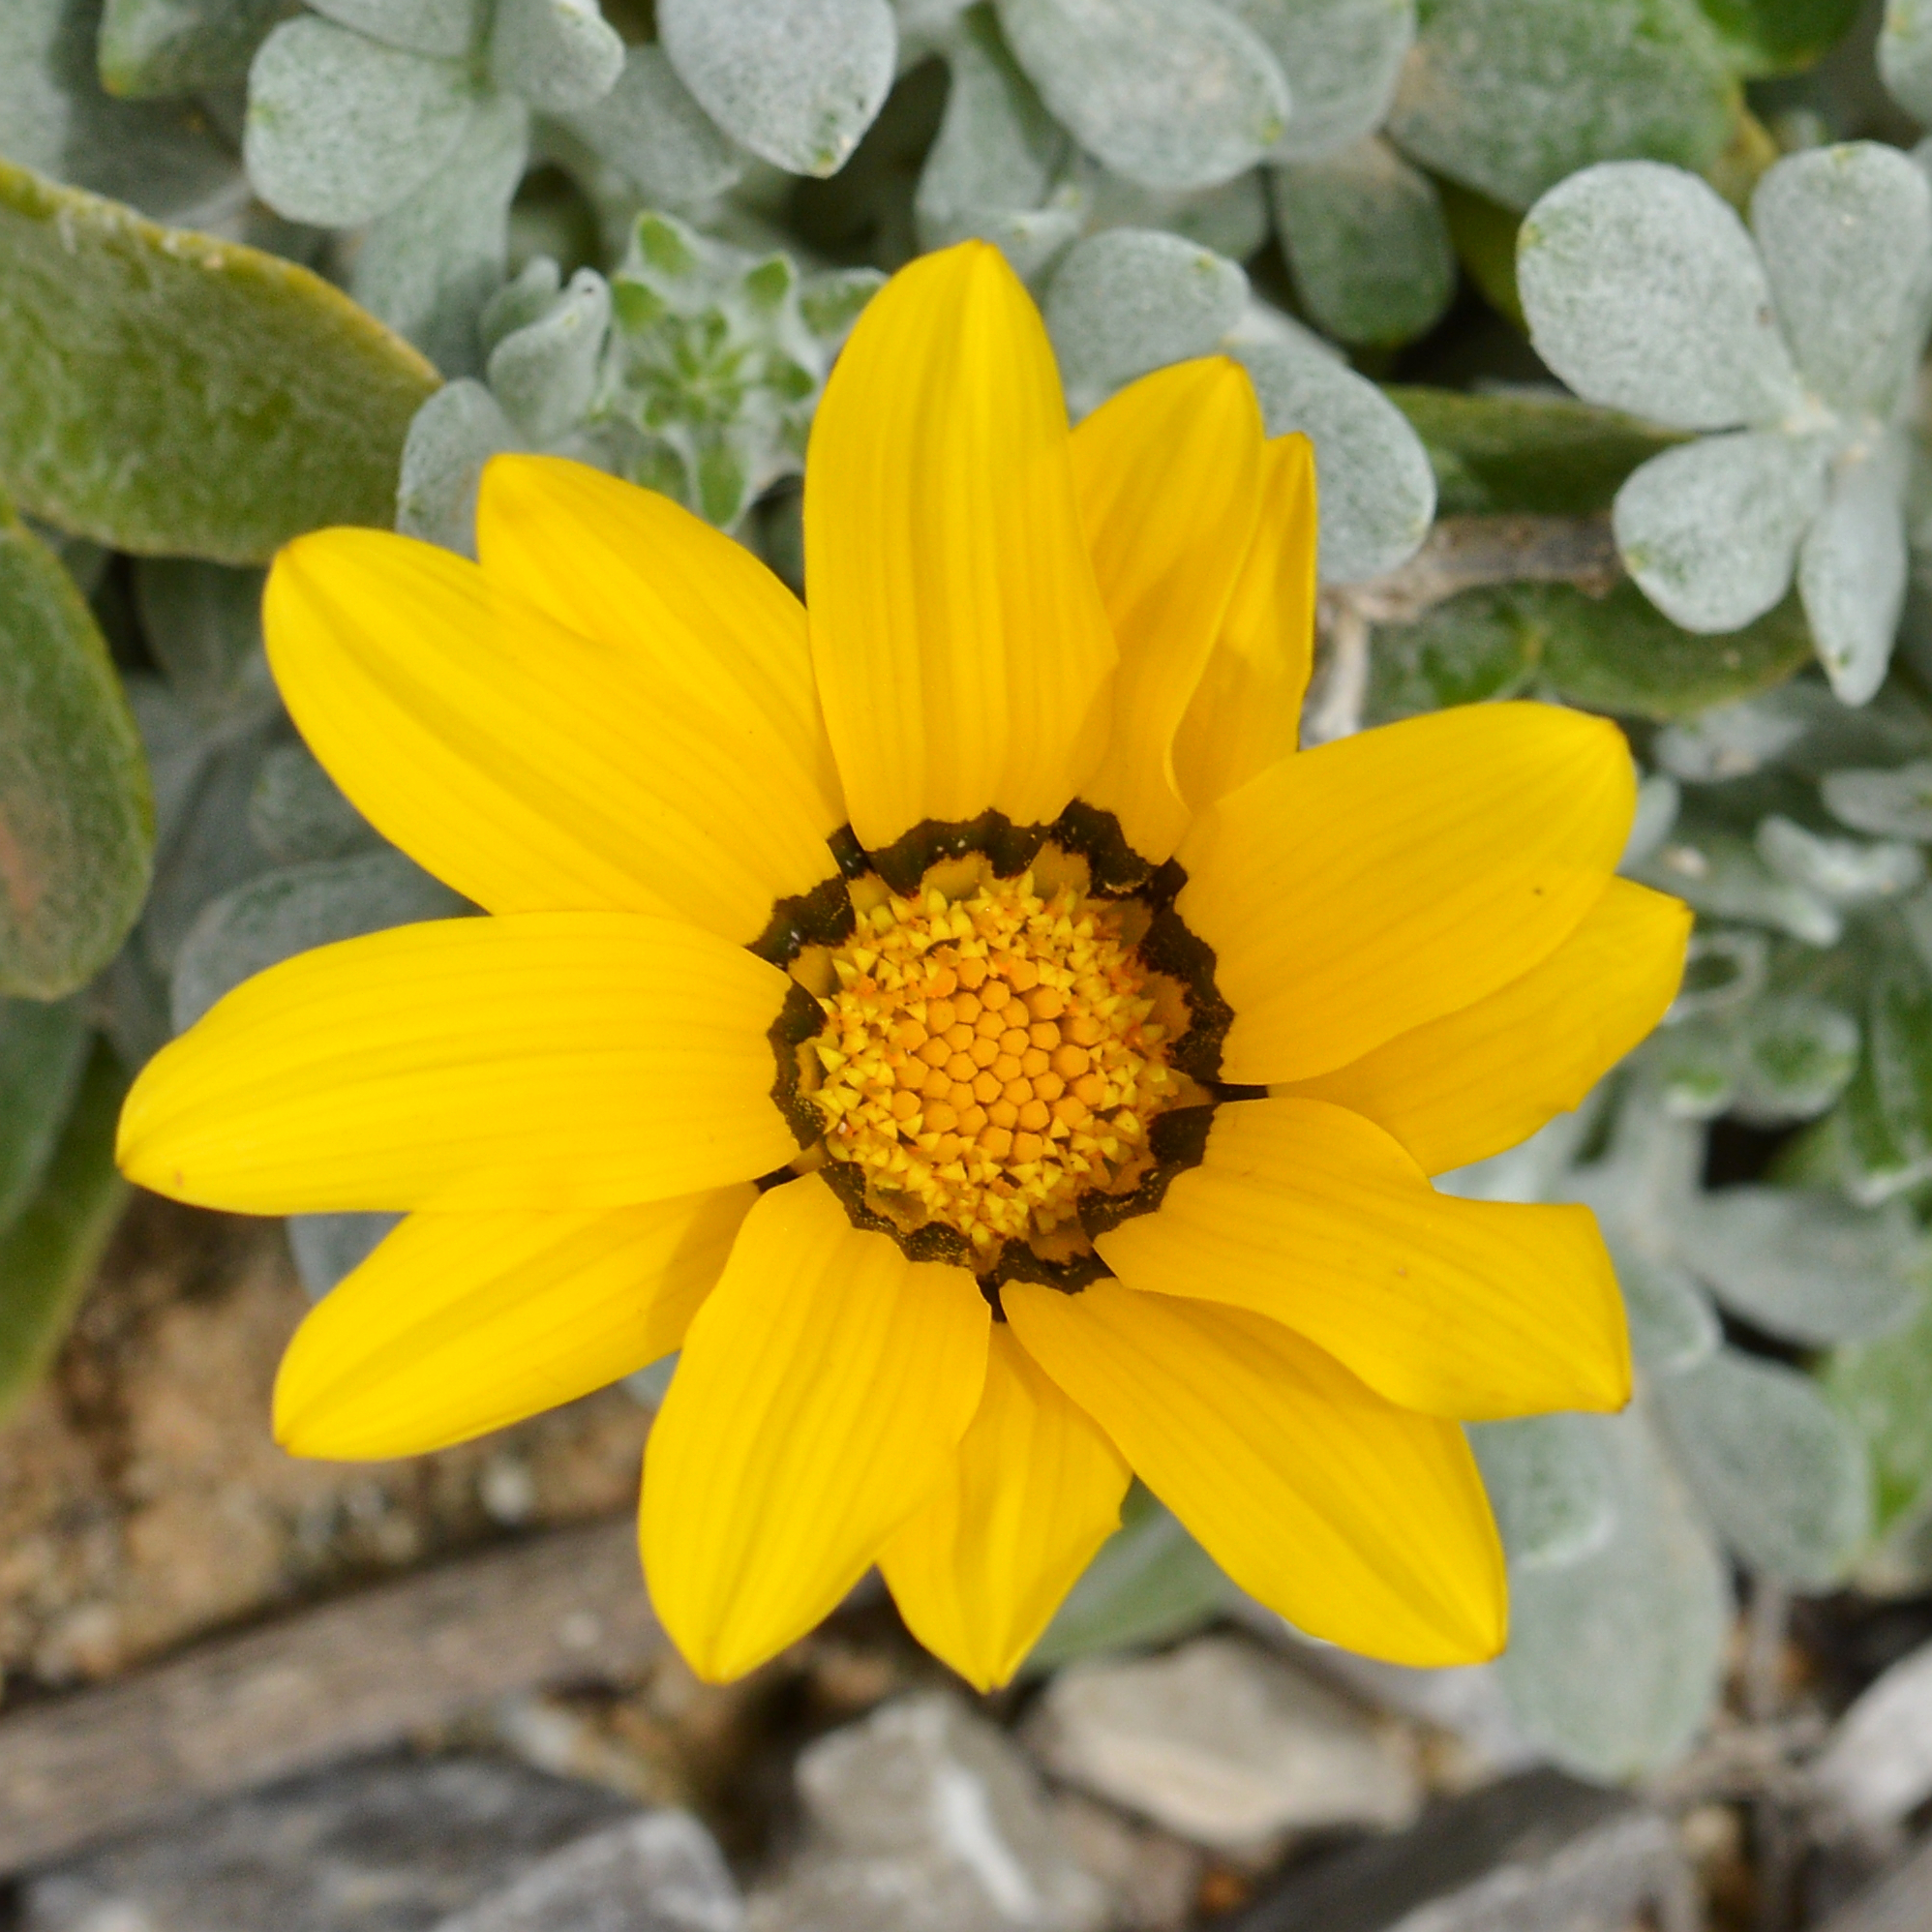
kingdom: Plantae
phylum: Tracheophyta
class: Magnoliopsida
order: Asterales
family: Asteraceae
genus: Gazania
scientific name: Gazania rigens
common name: Treasureflower
